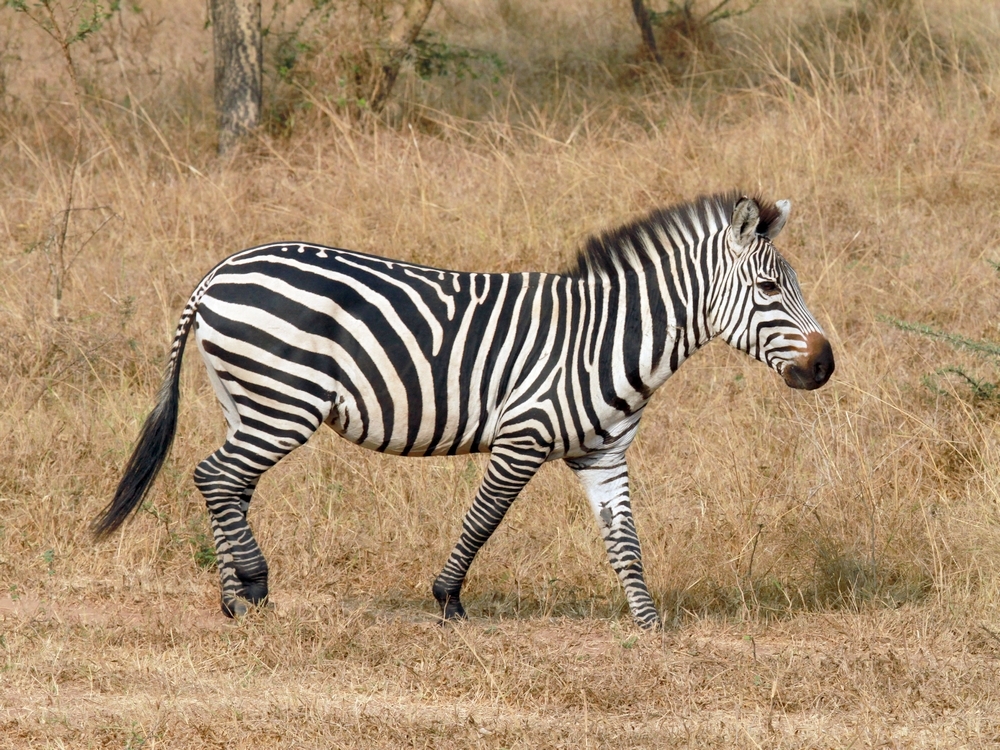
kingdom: Animalia
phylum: Chordata
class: Mammalia
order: Perissodactyla
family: Equidae
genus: Equus
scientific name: Equus quagga
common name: Plains zebra
